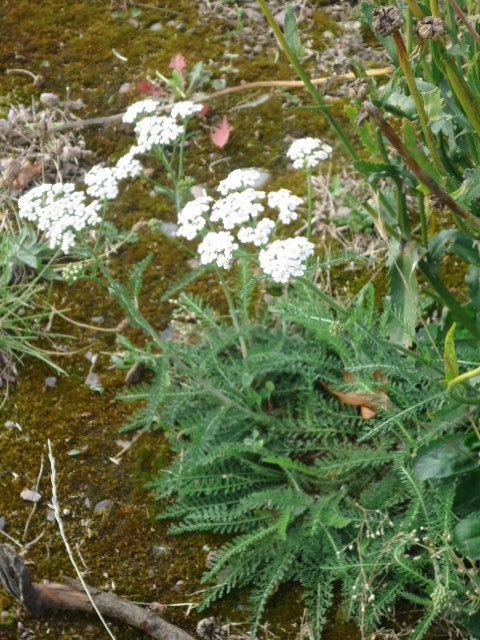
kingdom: Plantae
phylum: Tracheophyta
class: Magnoliopsida
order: Asterales
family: Asteraceae
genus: Achillea
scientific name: Achillea millefolium
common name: Yarrow
